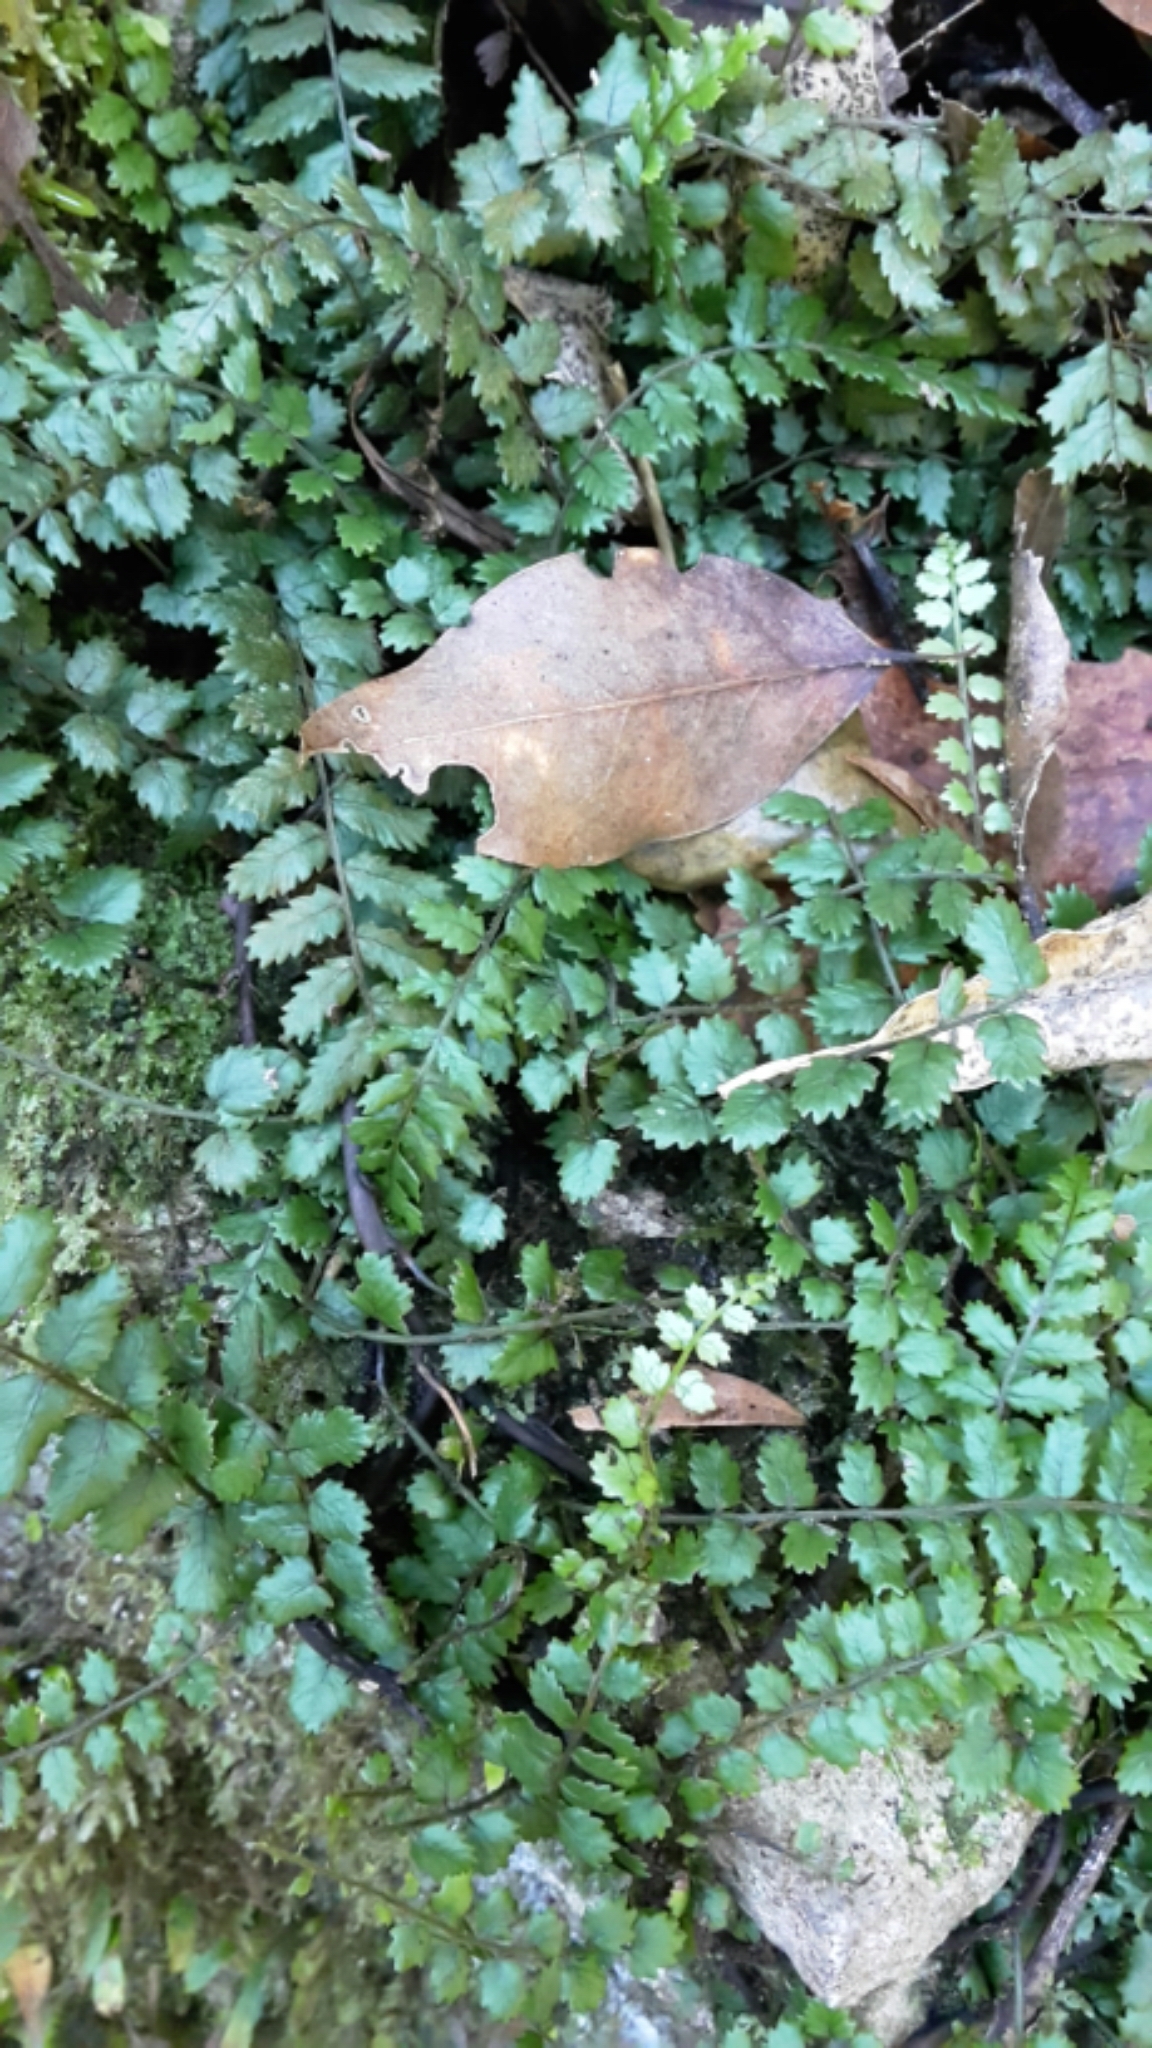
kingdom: Plantae
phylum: Tracheophyta
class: Polypodiopsida
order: Polypodiales
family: Blechnaceae
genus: Icarus
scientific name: Icarus filiformis
